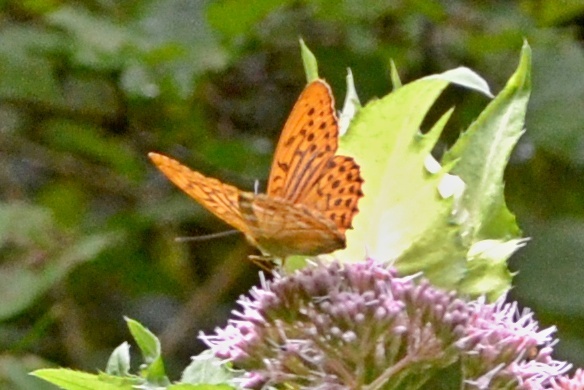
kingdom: Animalia
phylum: Arthropoda
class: Insecta
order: Lepidoptera
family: Nymphalidae
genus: Argynnis
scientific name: Argynnis paphia
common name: Silver-washed fritillary
